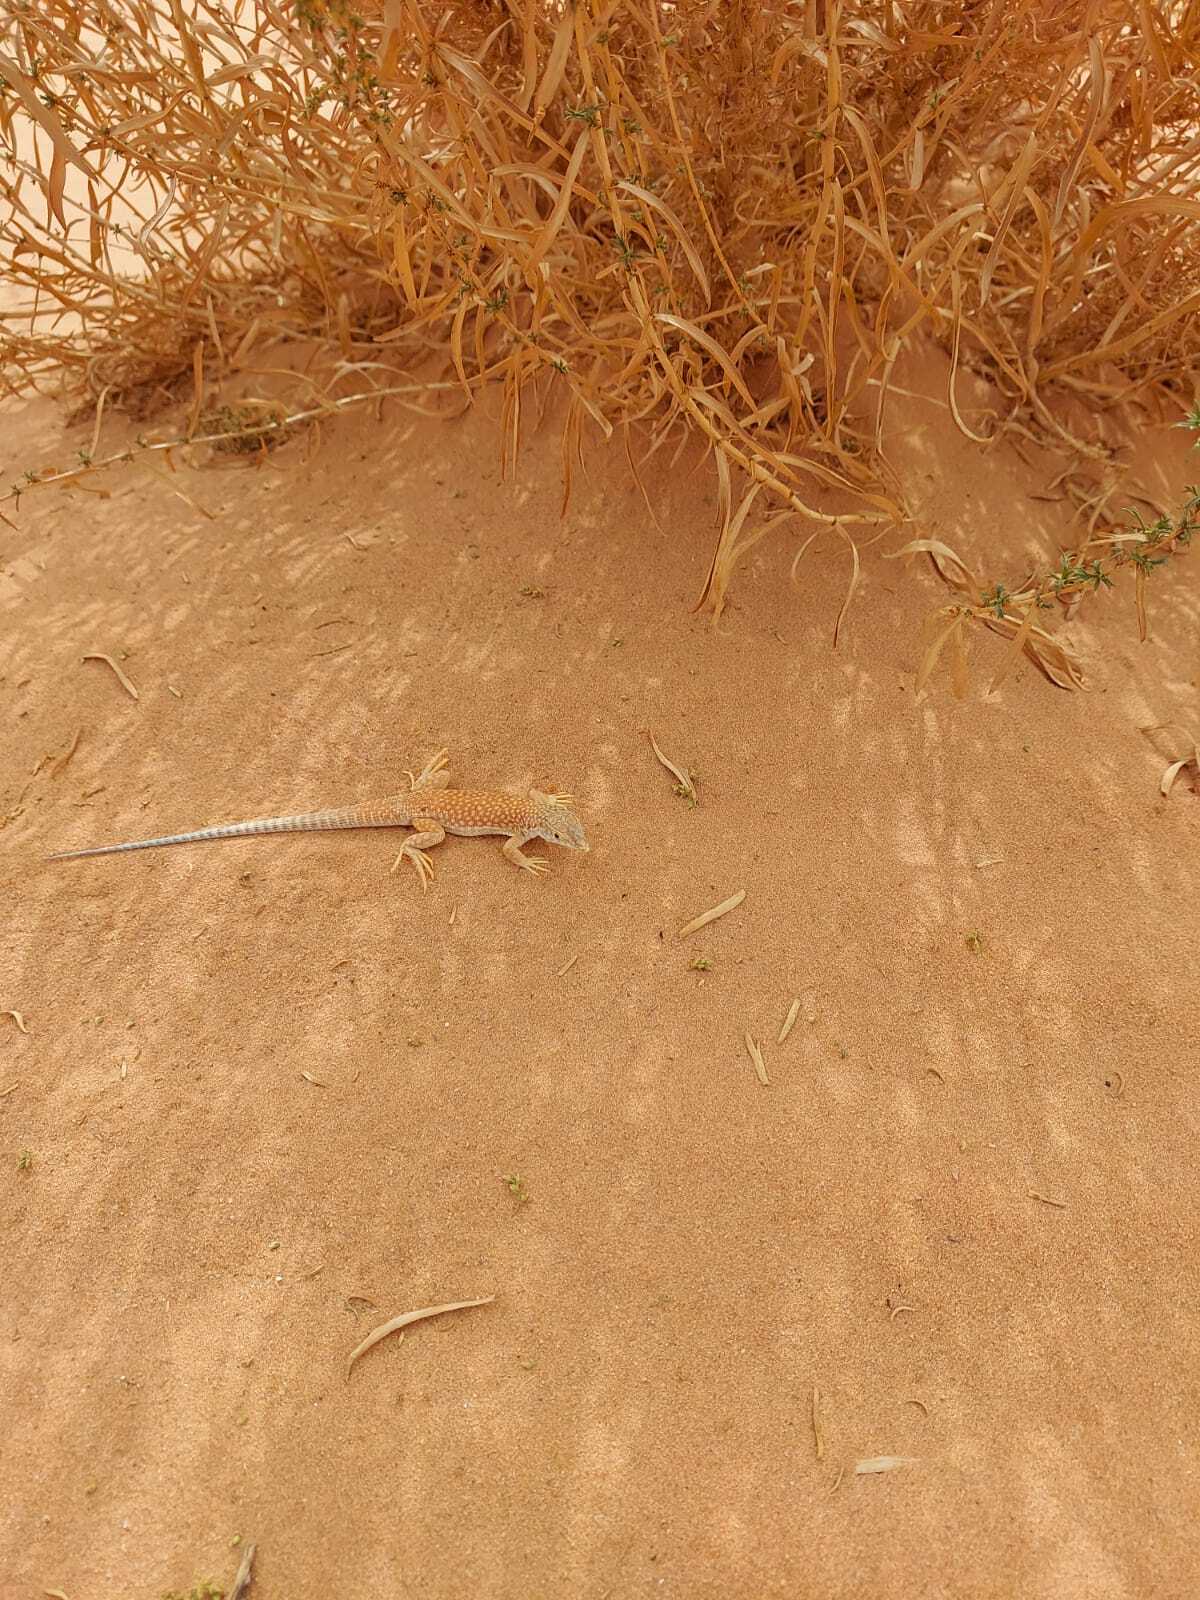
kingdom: Animalia
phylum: Chordata
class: Squamata
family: Lacertidae
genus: Acanthodactylus
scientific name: Acanthodactylus schmidti
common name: Schmidt's fringe-toed lizard
